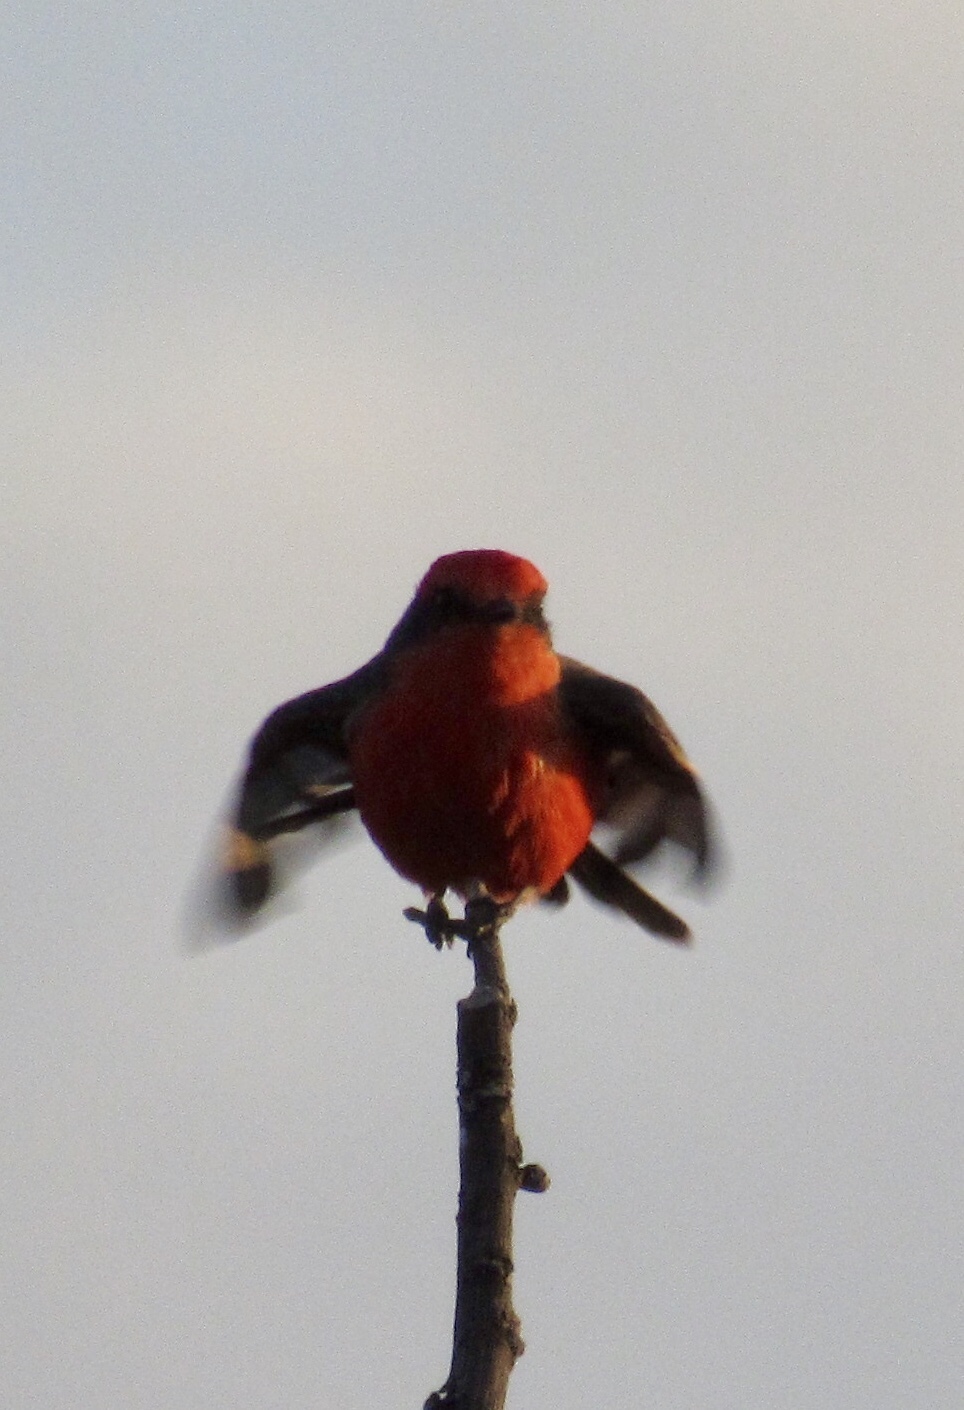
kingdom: Animalia
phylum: Chordata
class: Aves
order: Passeriformes
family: Tyrannidae
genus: Pyrocephalus
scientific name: Pyrocephalus rubinus
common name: Vermilion flycatcher
